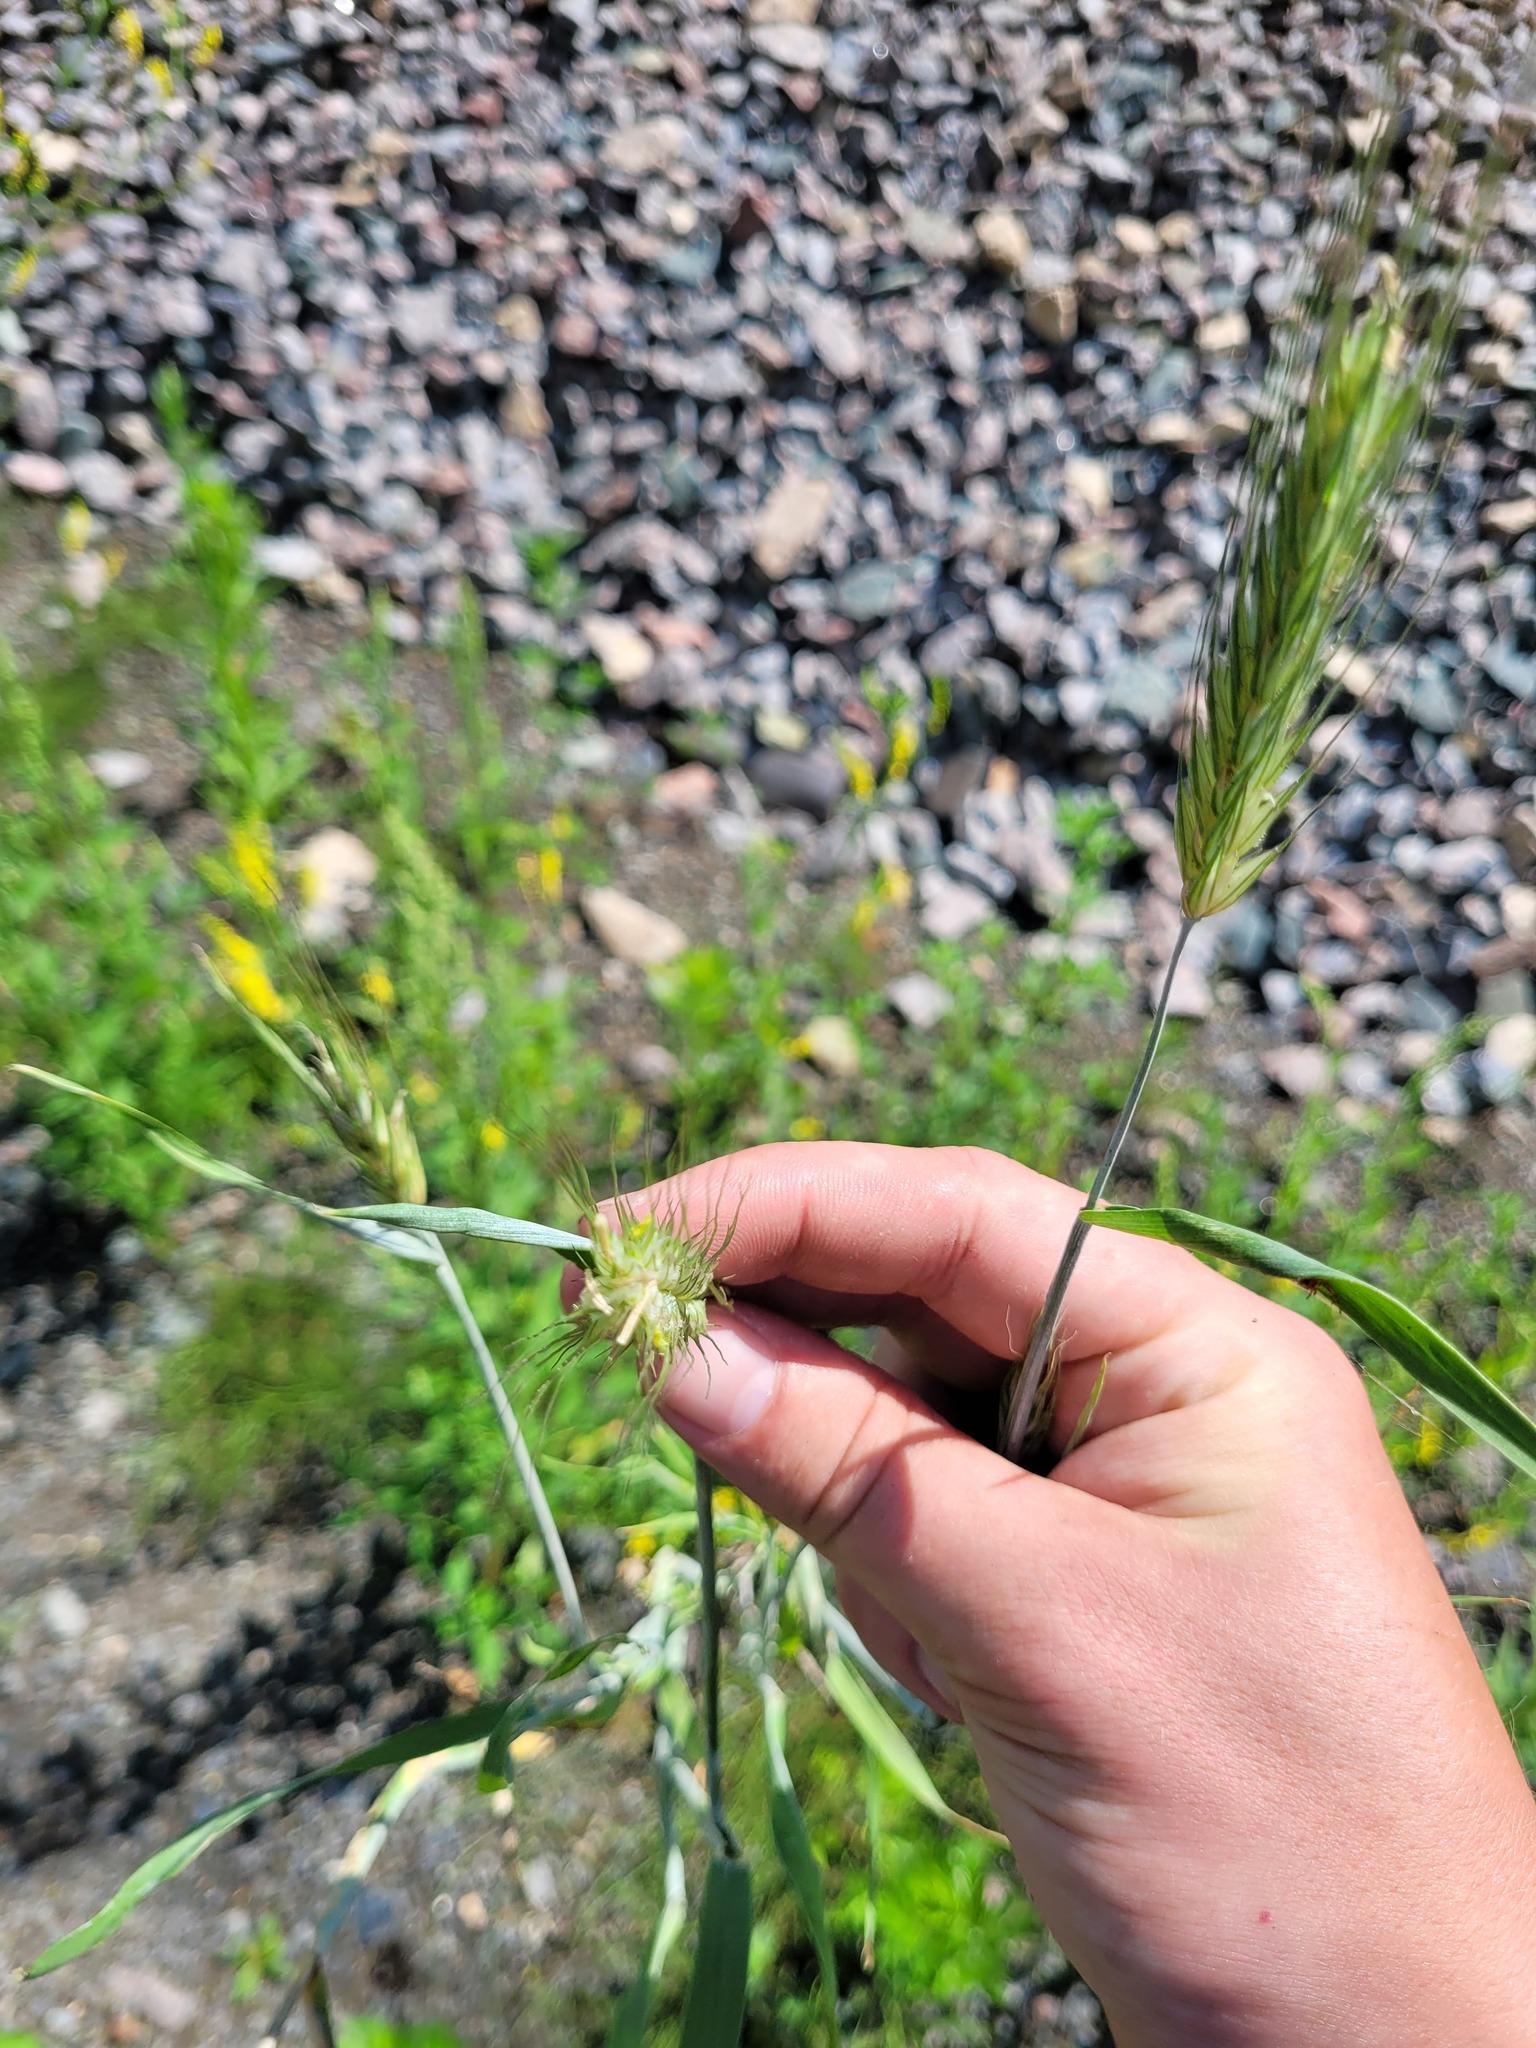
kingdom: Plantae
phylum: Tracheophyta
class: Liliopsida
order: Poales
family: Poaceae
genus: Secale
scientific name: Secale cereale
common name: Rye
